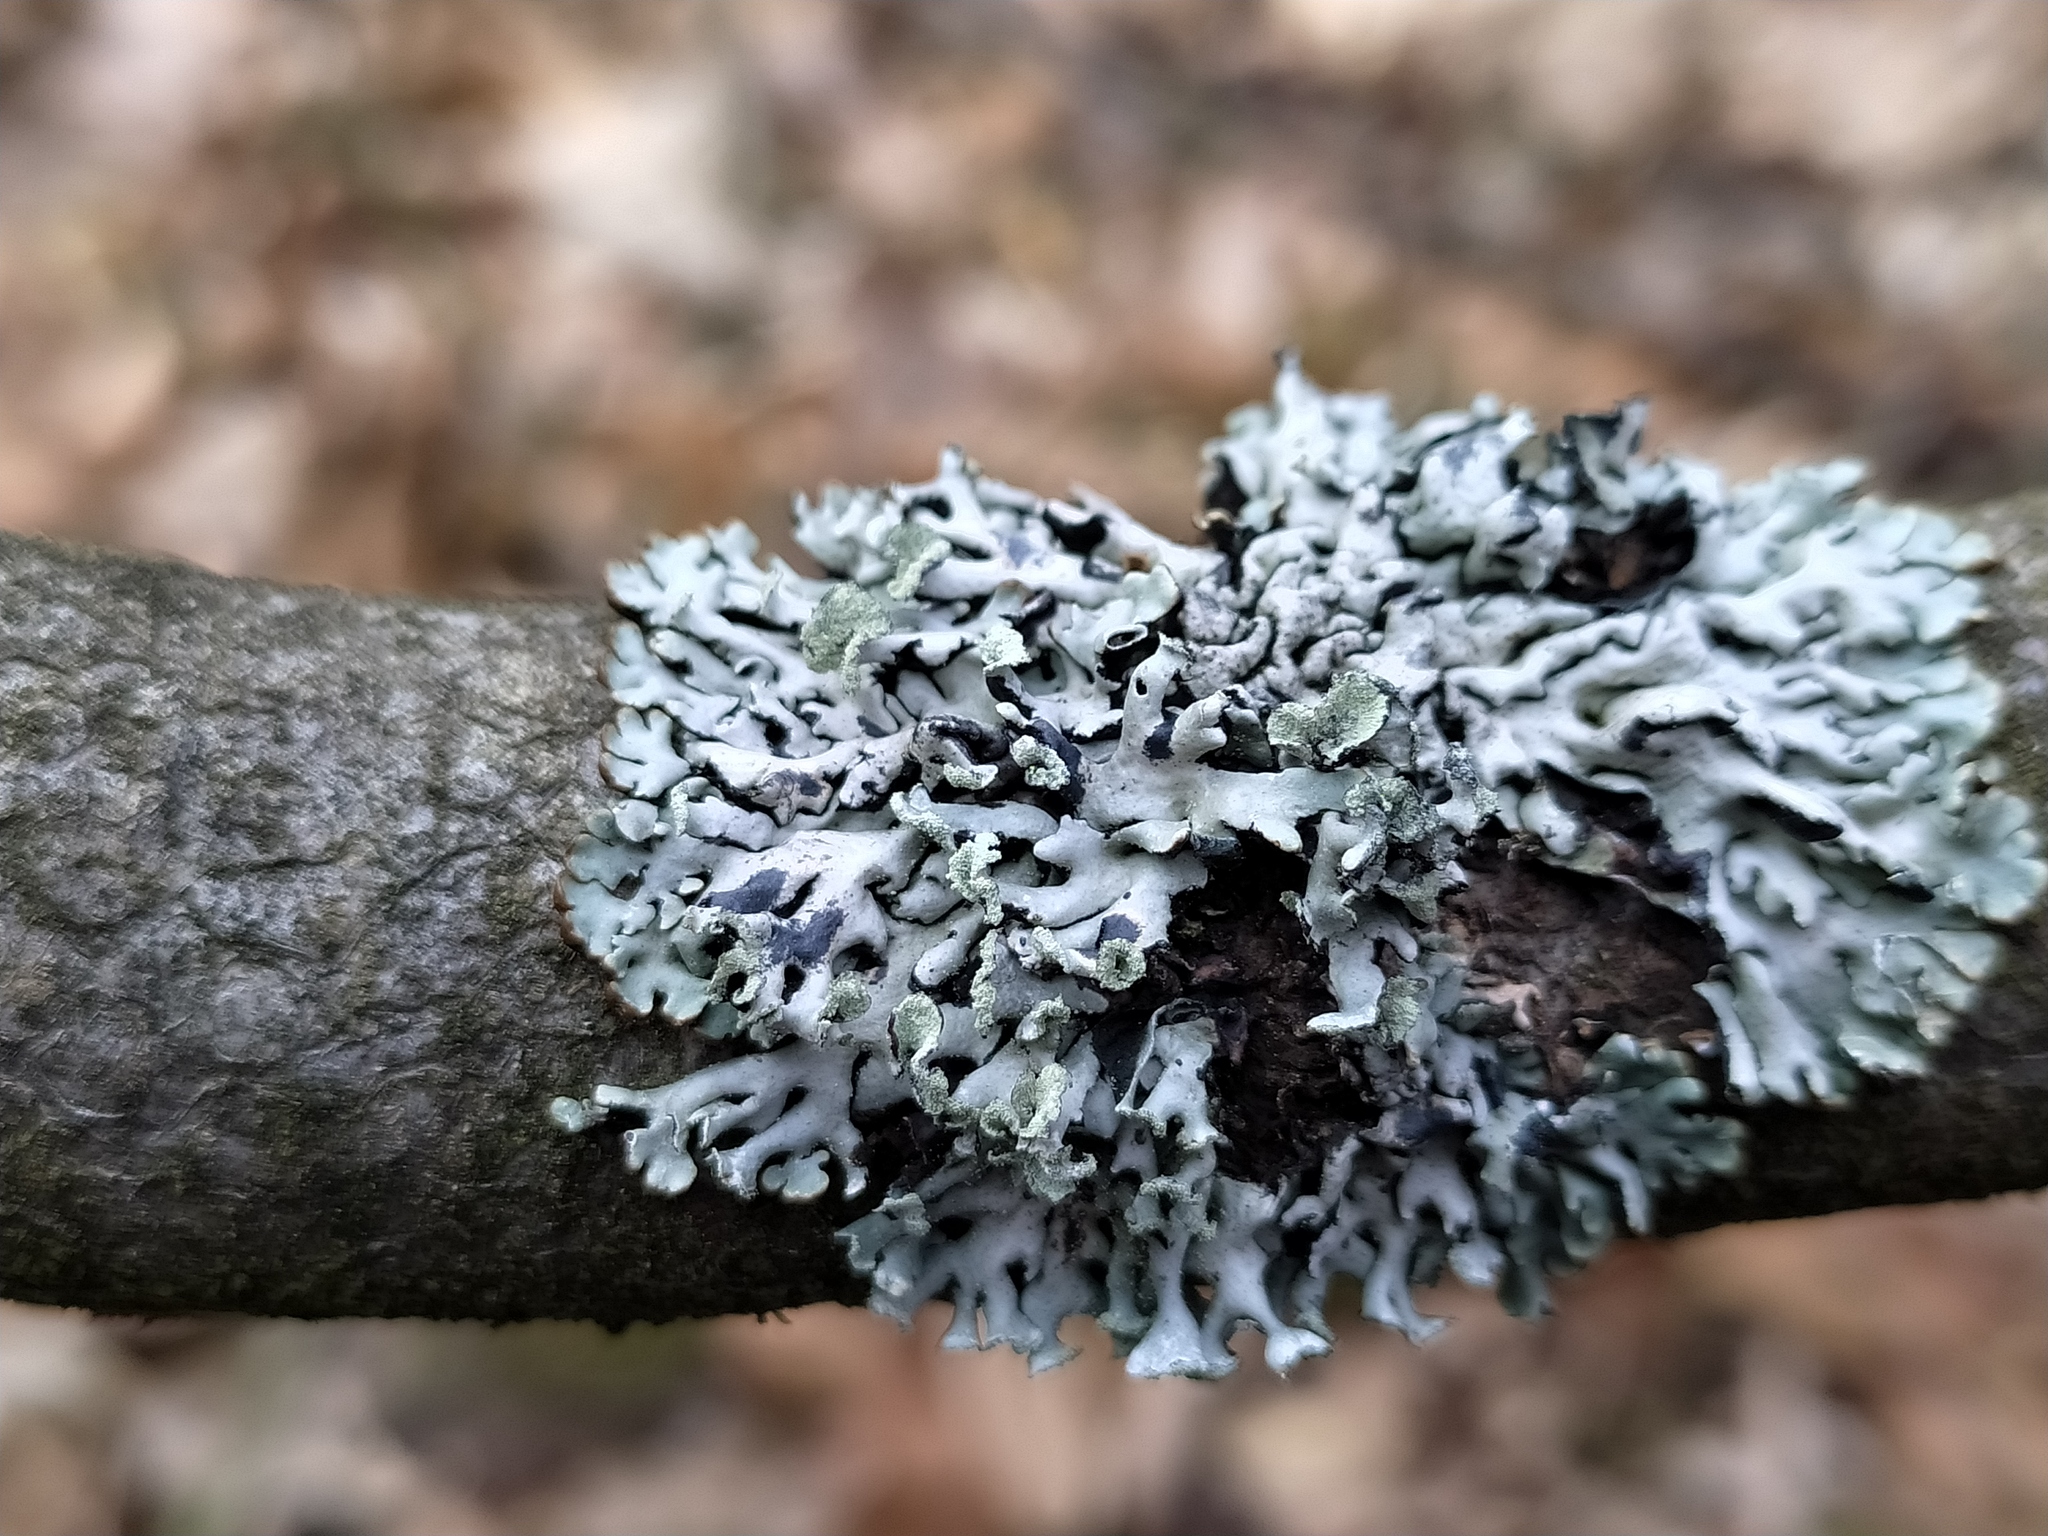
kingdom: Fungi
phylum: Ascomycota
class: Lecanoromycetes
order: Lecanorales
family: Parmeliaceae
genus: Hypogymnia
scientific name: Hypogymnia physodes
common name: Dark crottle
